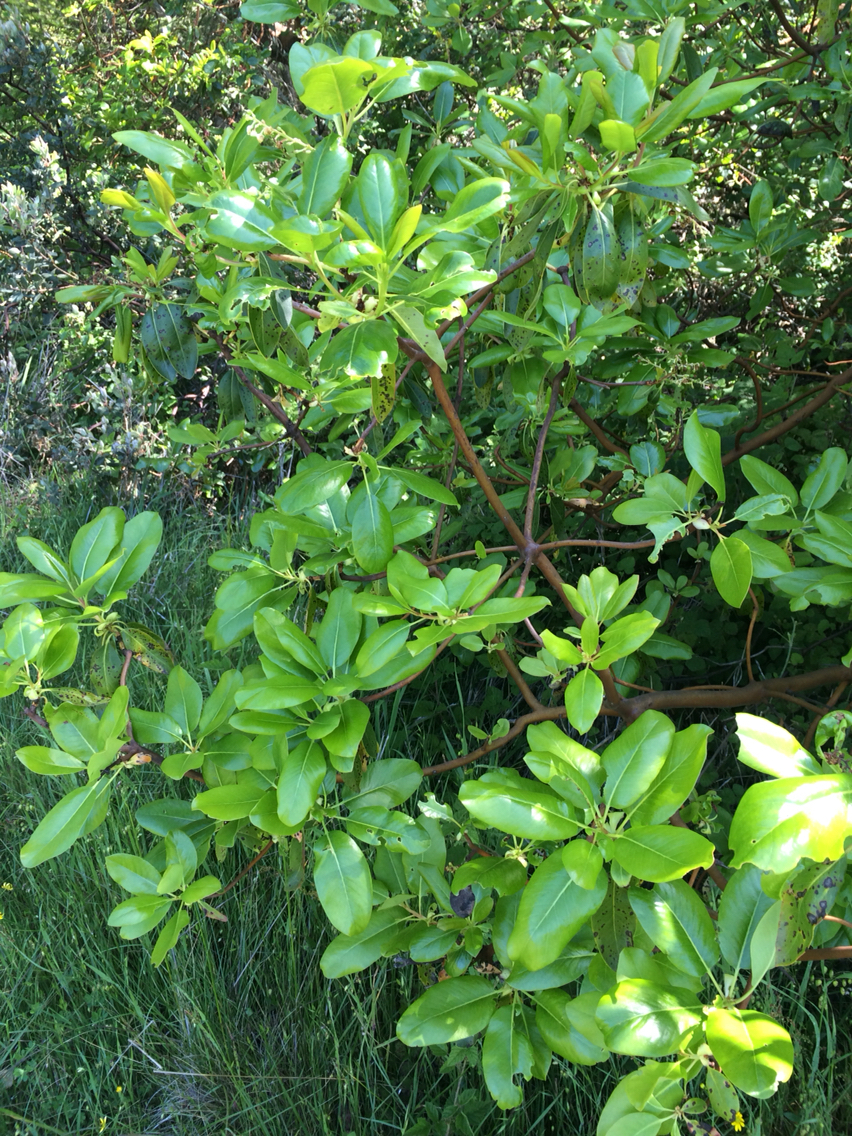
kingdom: Plantae
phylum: Tracheophyta
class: Magnoliopsida
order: Ericales
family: Ericaceae
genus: Arbutus
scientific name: Arbutus menziesii
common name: Pacific madrone
